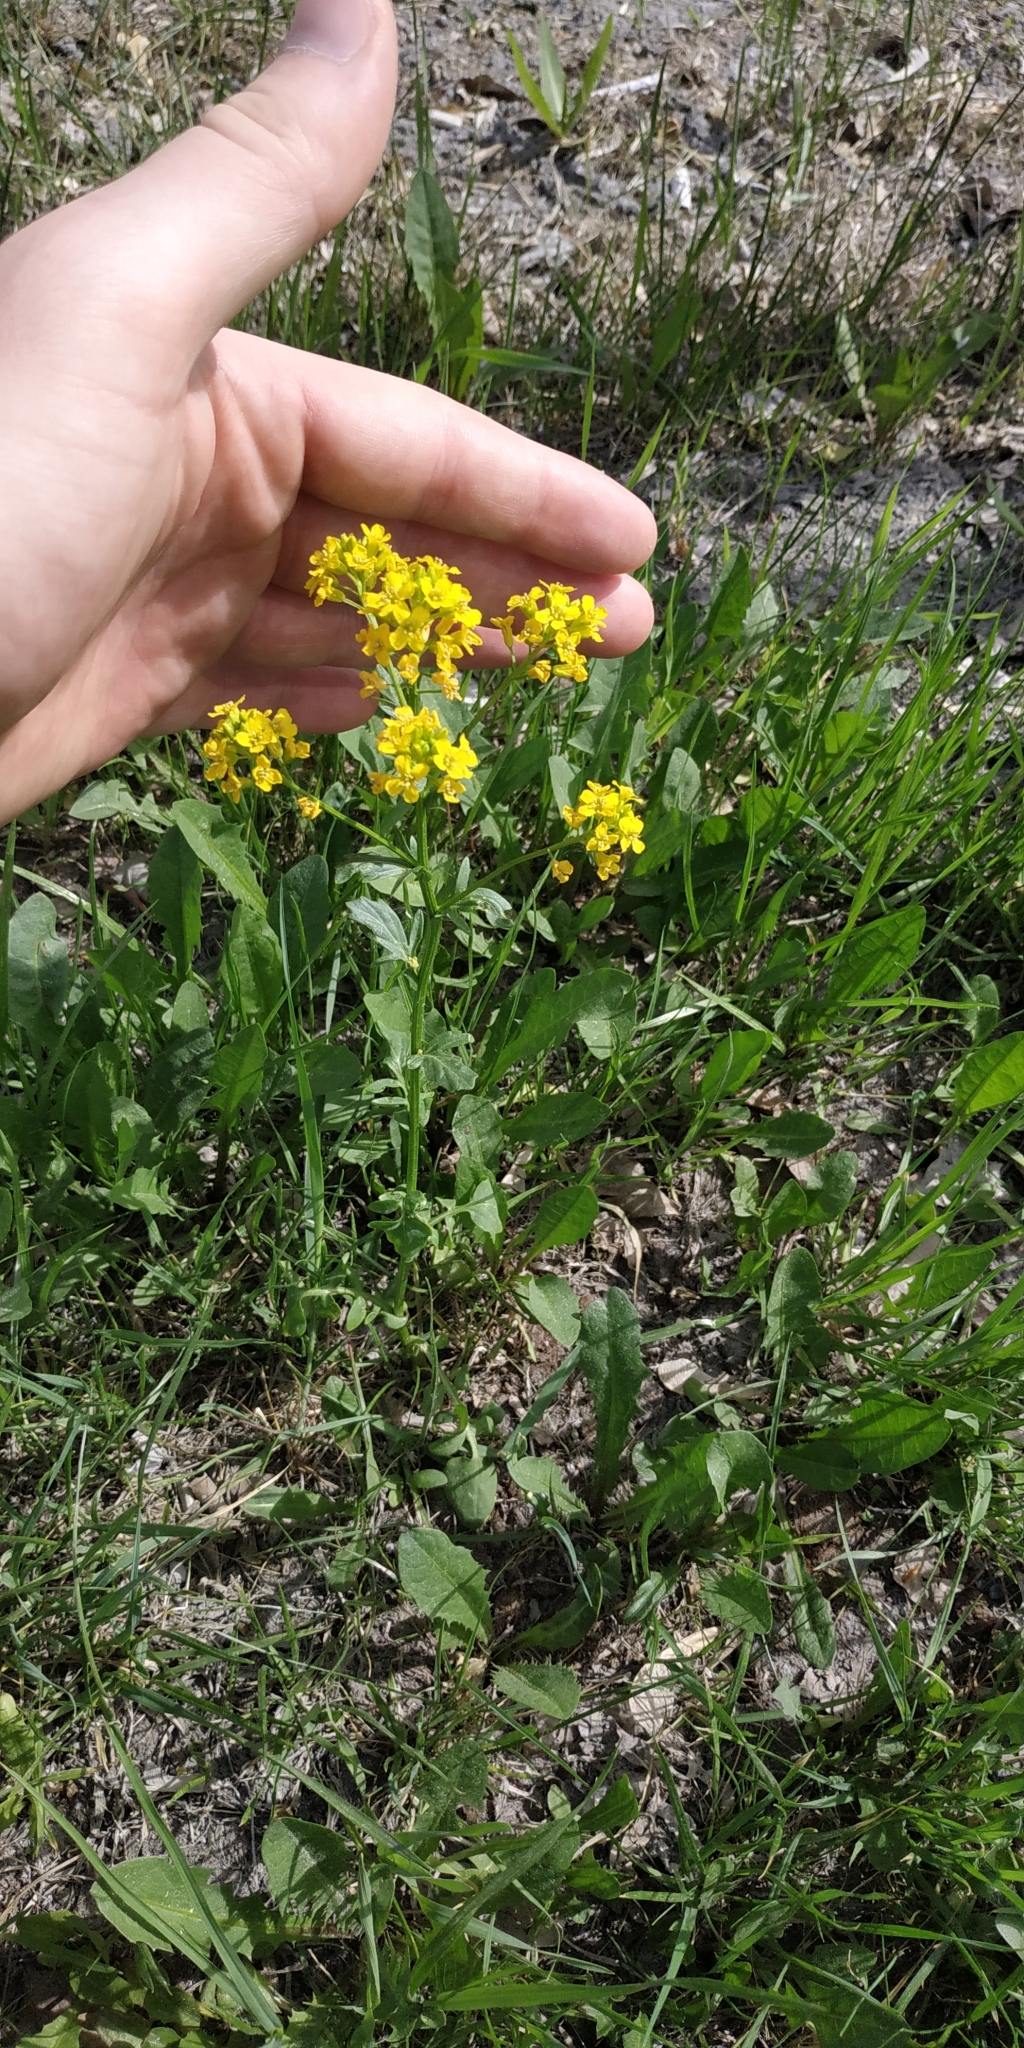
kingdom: Plantae
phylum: Tracheophyta
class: Magnoliopsida
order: Brassicales
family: Brassicaceae
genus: Barbarea
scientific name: Barbarea vulgaris
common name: Cressy-greens
